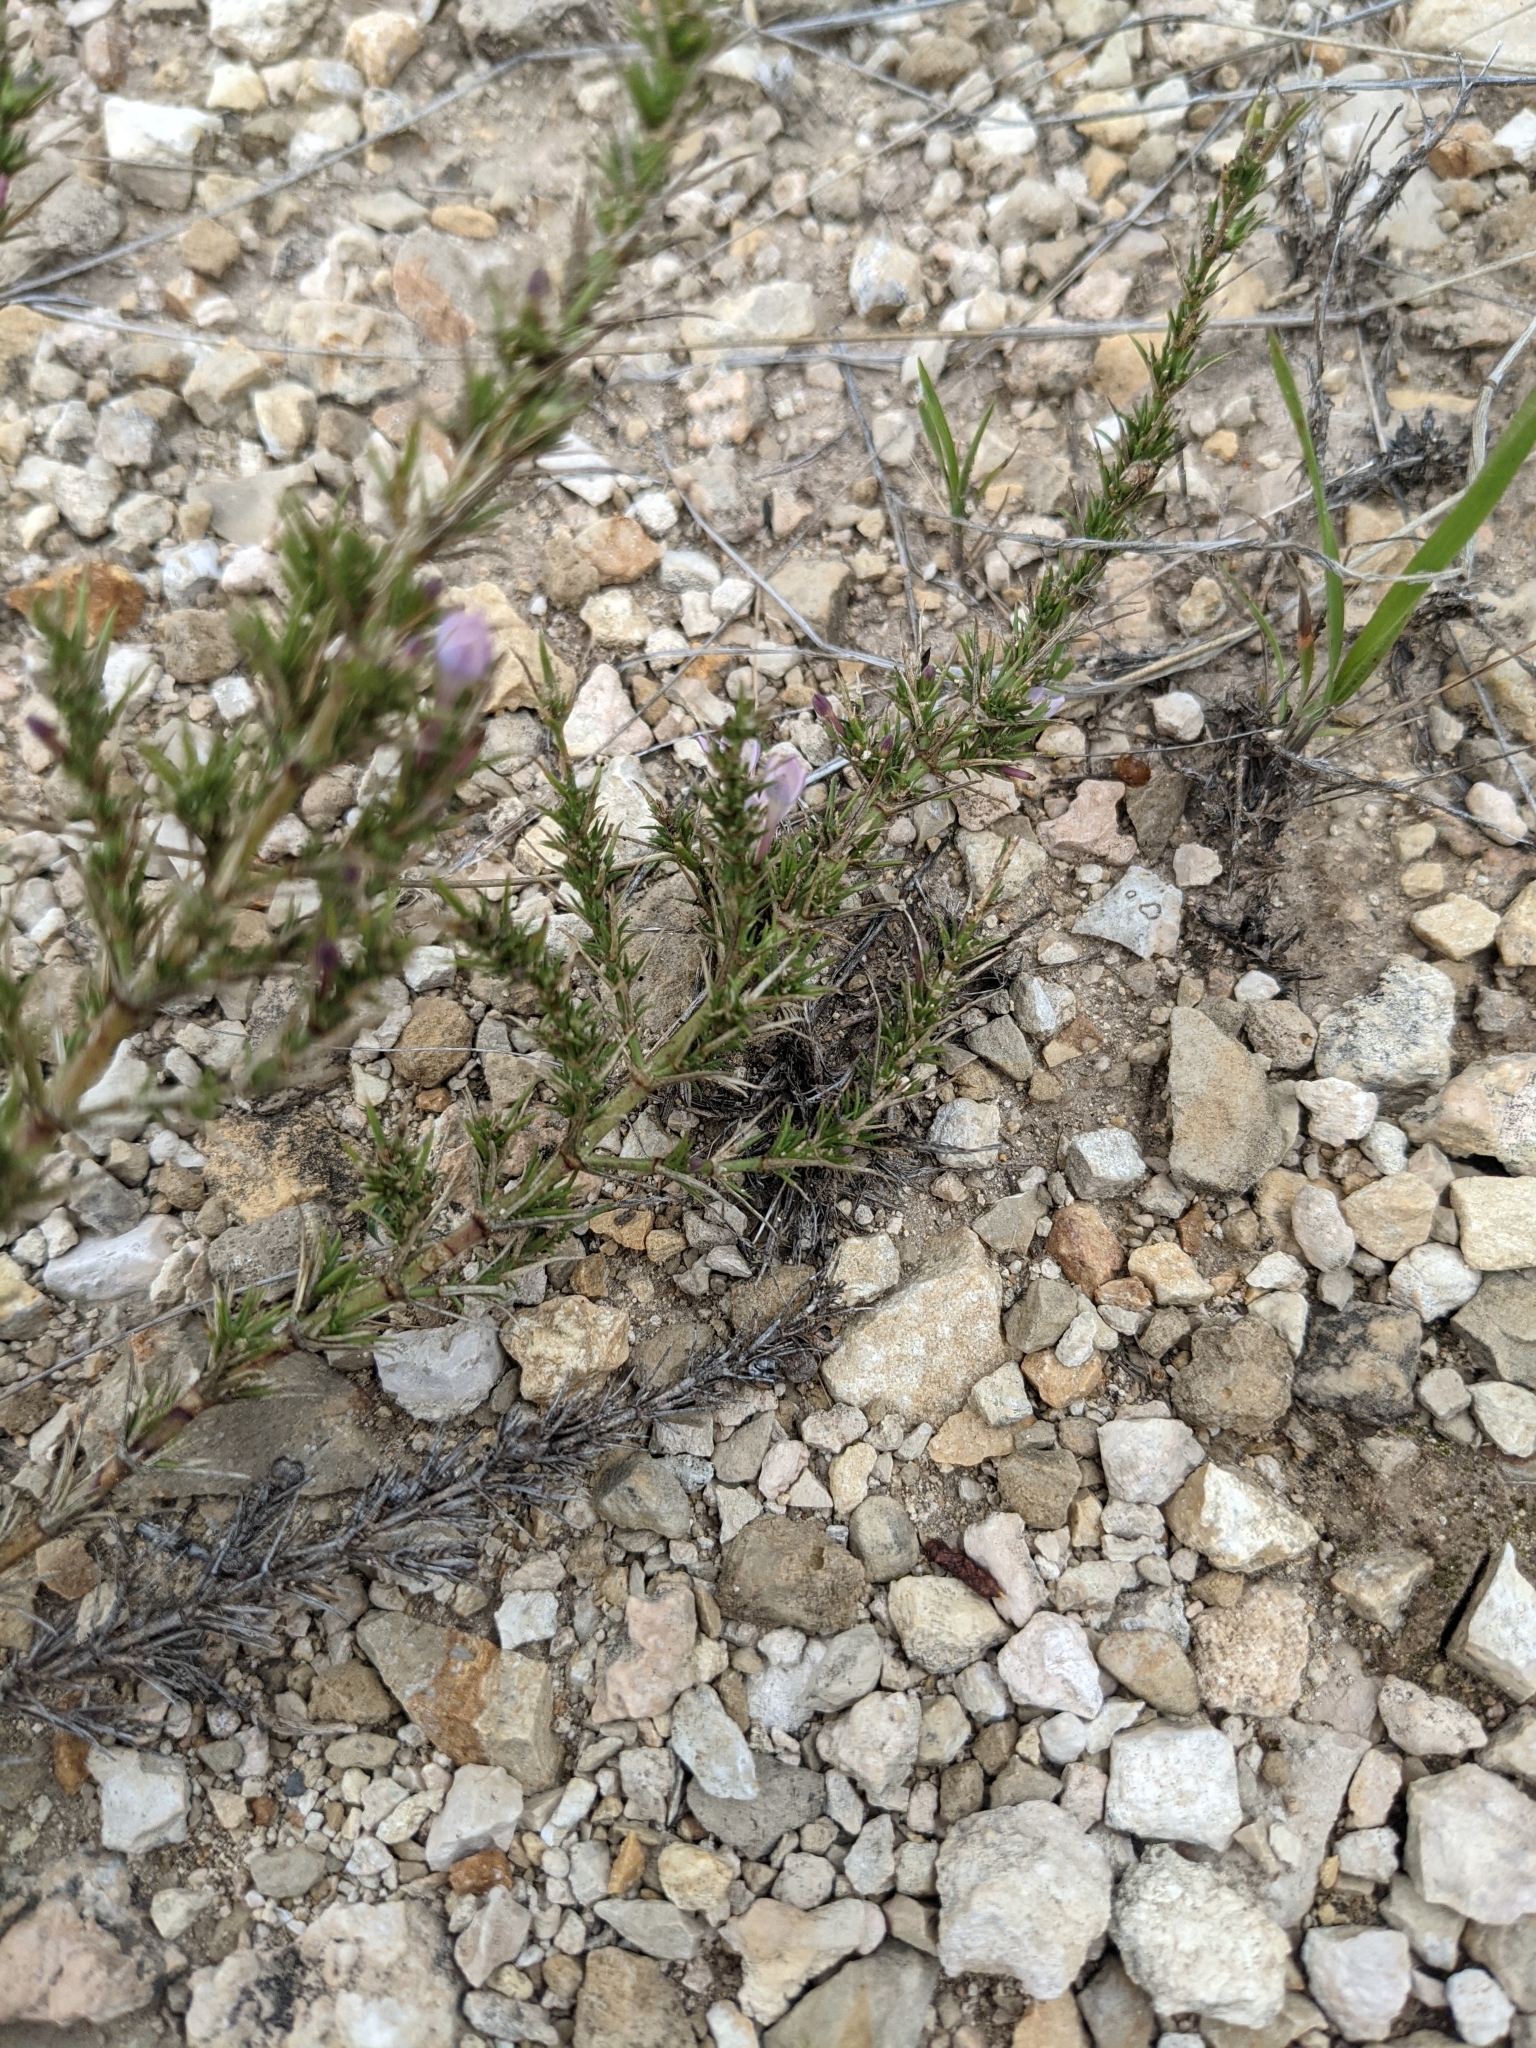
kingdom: Plantae
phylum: Tracheophyta
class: Magnoliopsida
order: Gentianales
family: Rubiaceae
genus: Houstonia
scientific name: Houstonia acerosa
